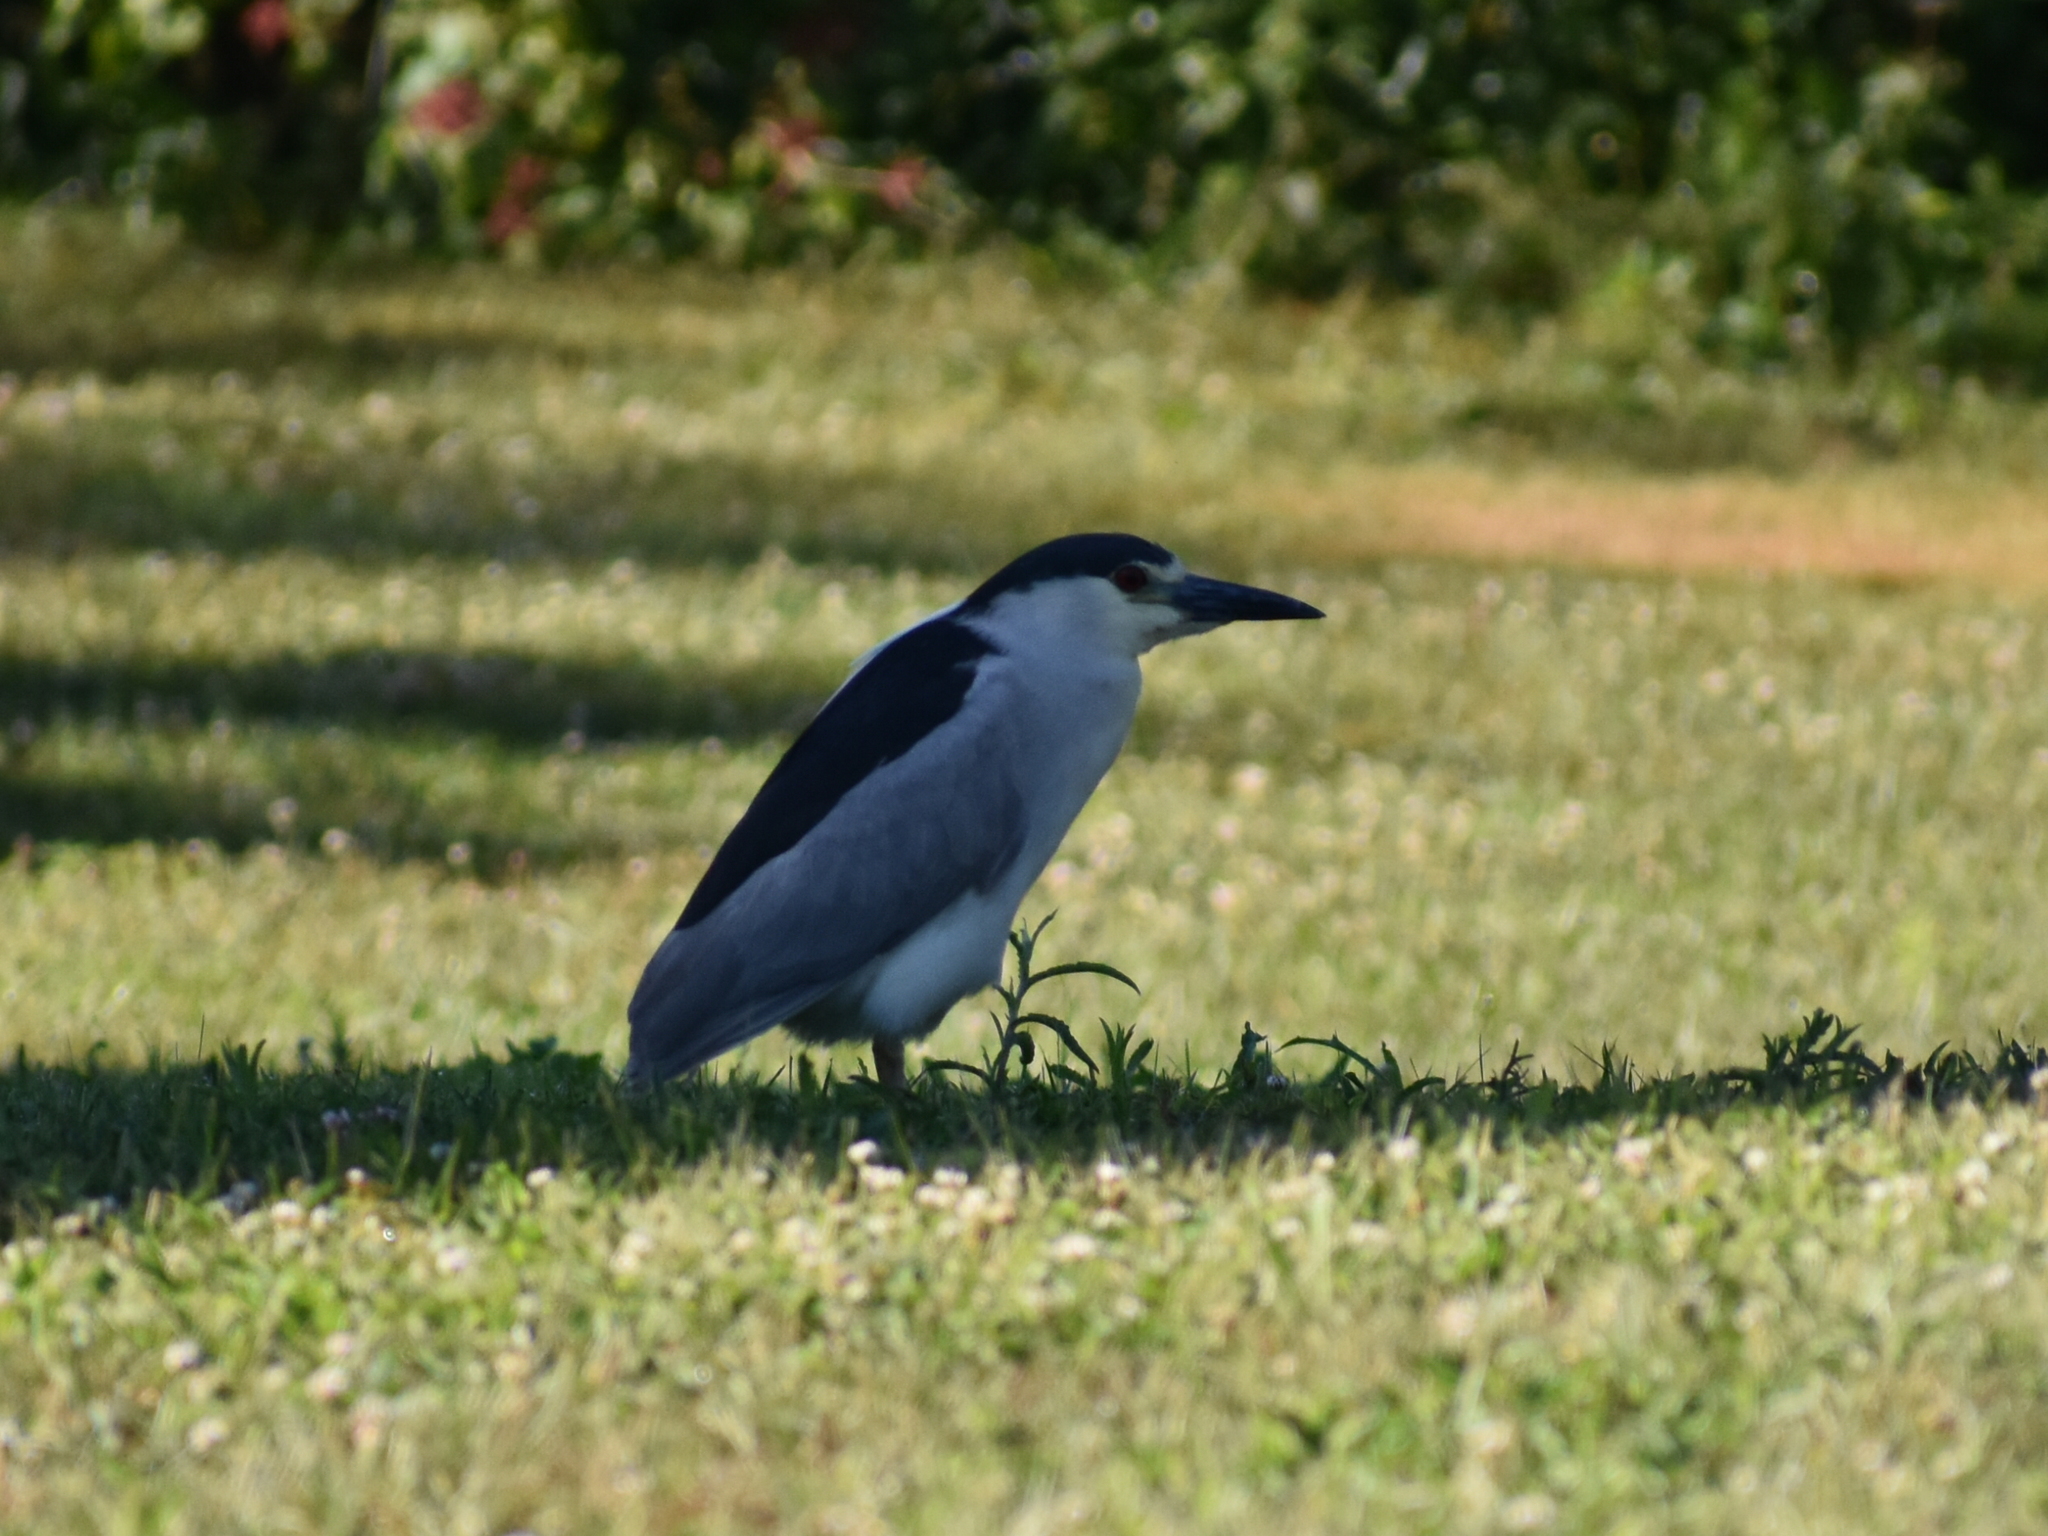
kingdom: Animalia
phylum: Chordata
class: Aves
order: Pelecaniformes
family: Ardeidae
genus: Nycticorax
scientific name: Nycticorax nycticorax
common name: Black-crowned night heron
